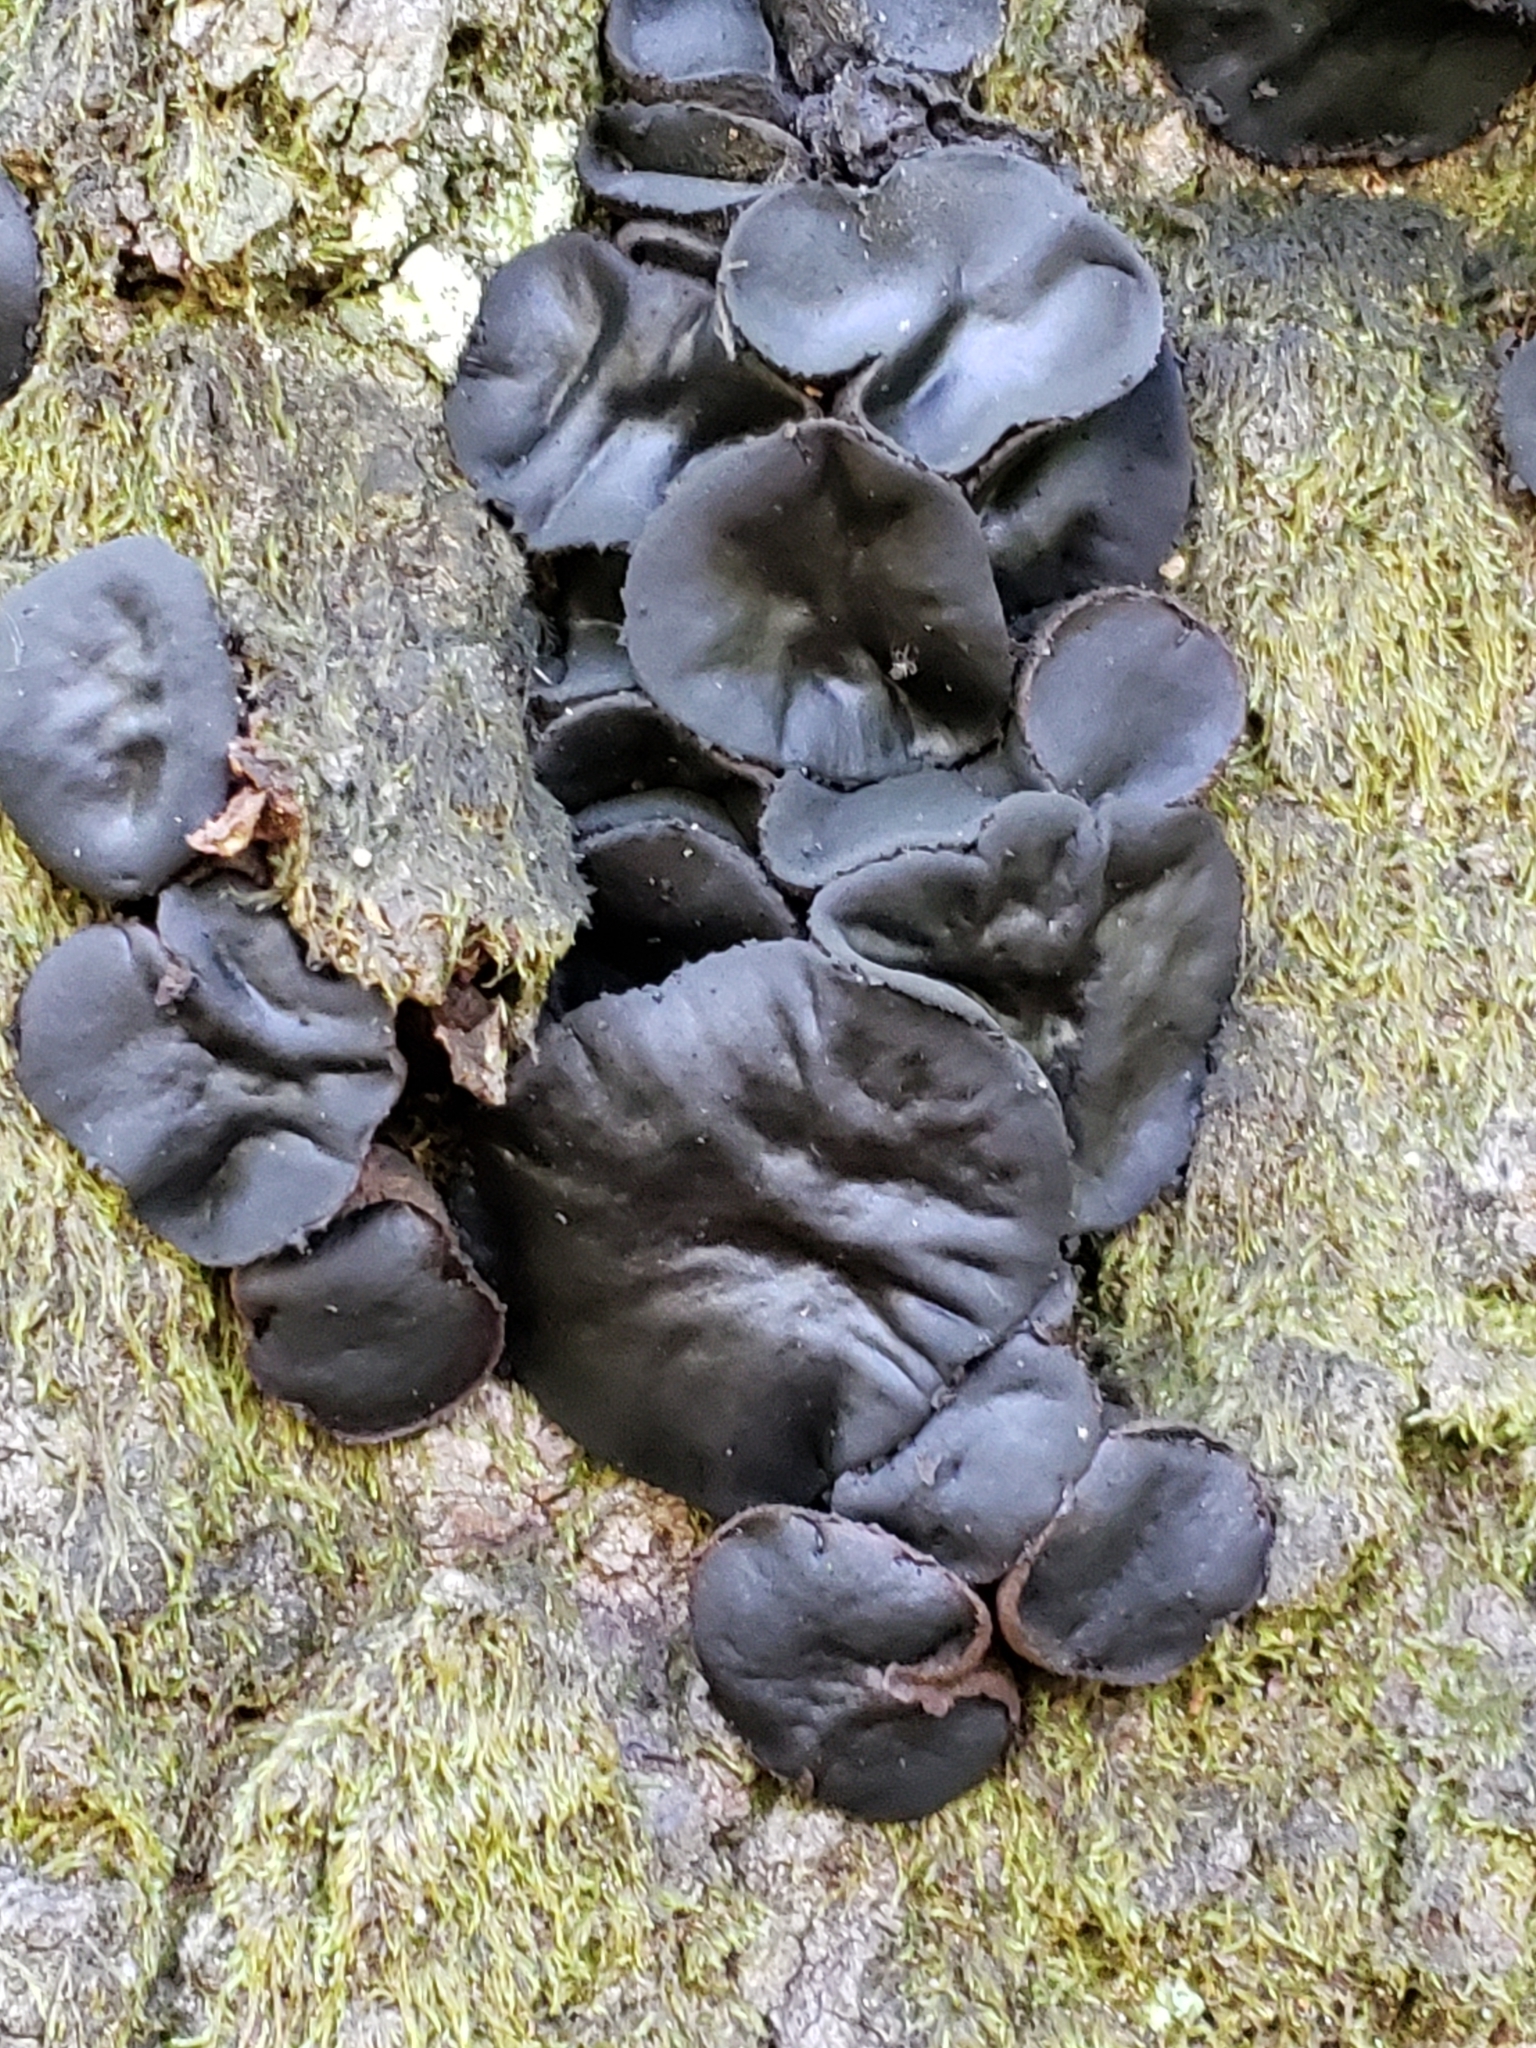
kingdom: Fungi
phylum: Basidiomycota
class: Agaricomycetes
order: Auriculariales
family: Auriculariaceae
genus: Exidia
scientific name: Exidia glandulosa
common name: Witches' butter
